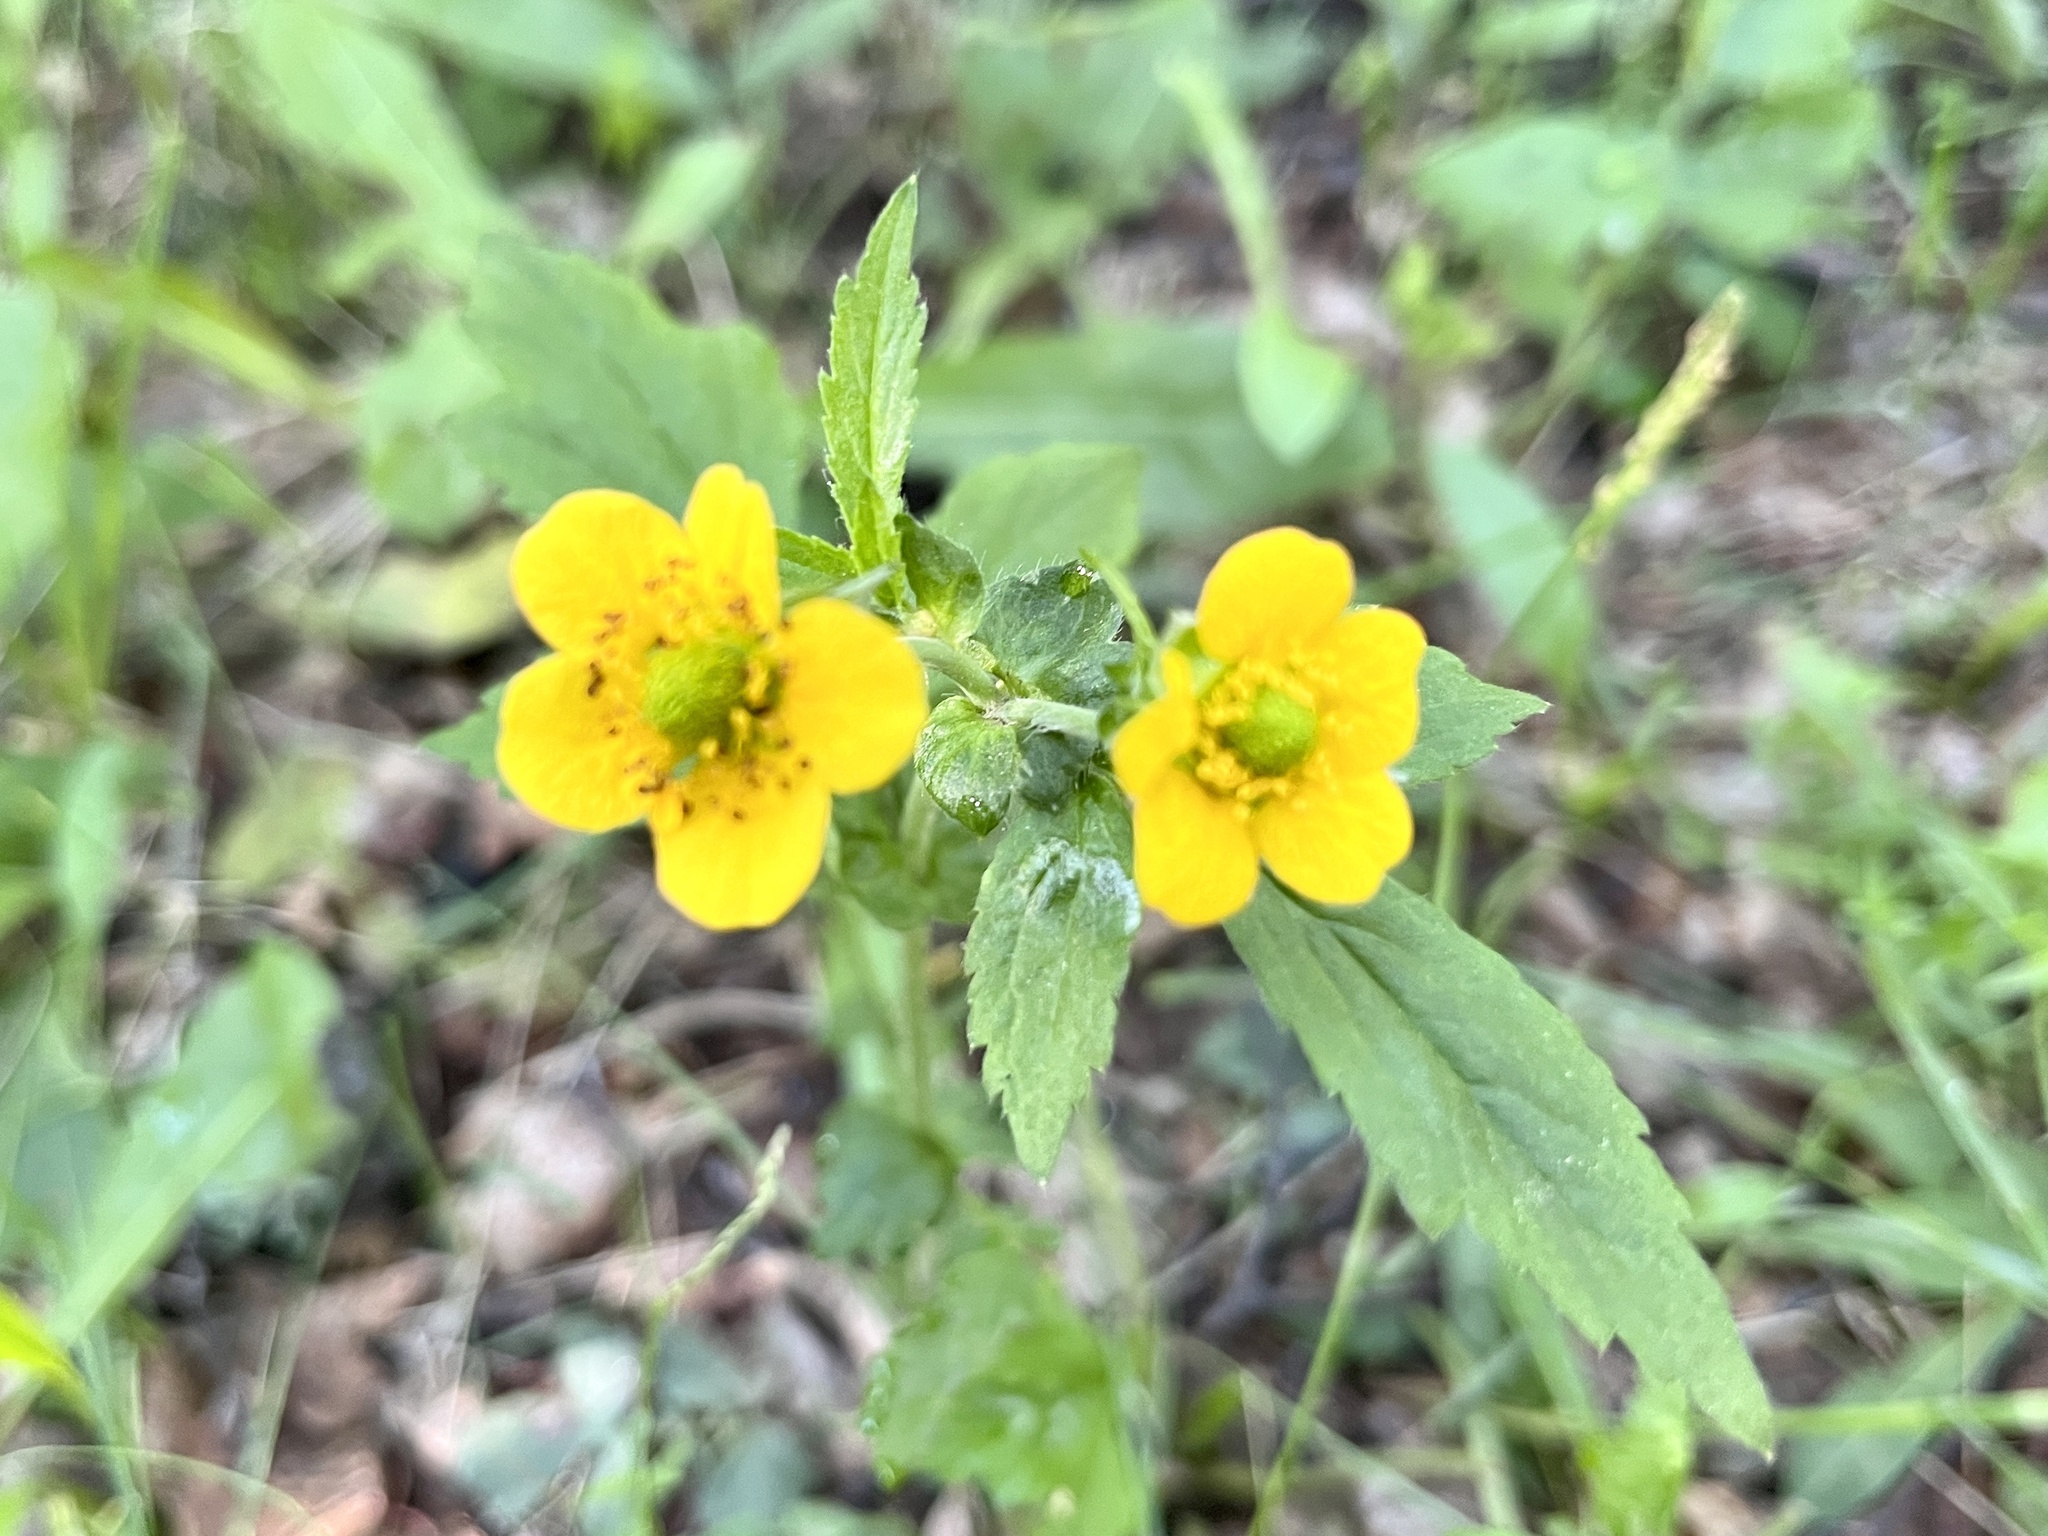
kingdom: Plantae
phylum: Tracheophyta
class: Magnoliopsida
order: Rosales
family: Rosaceae
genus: Geum
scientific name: Geum aleppicum
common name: Yellow avens
